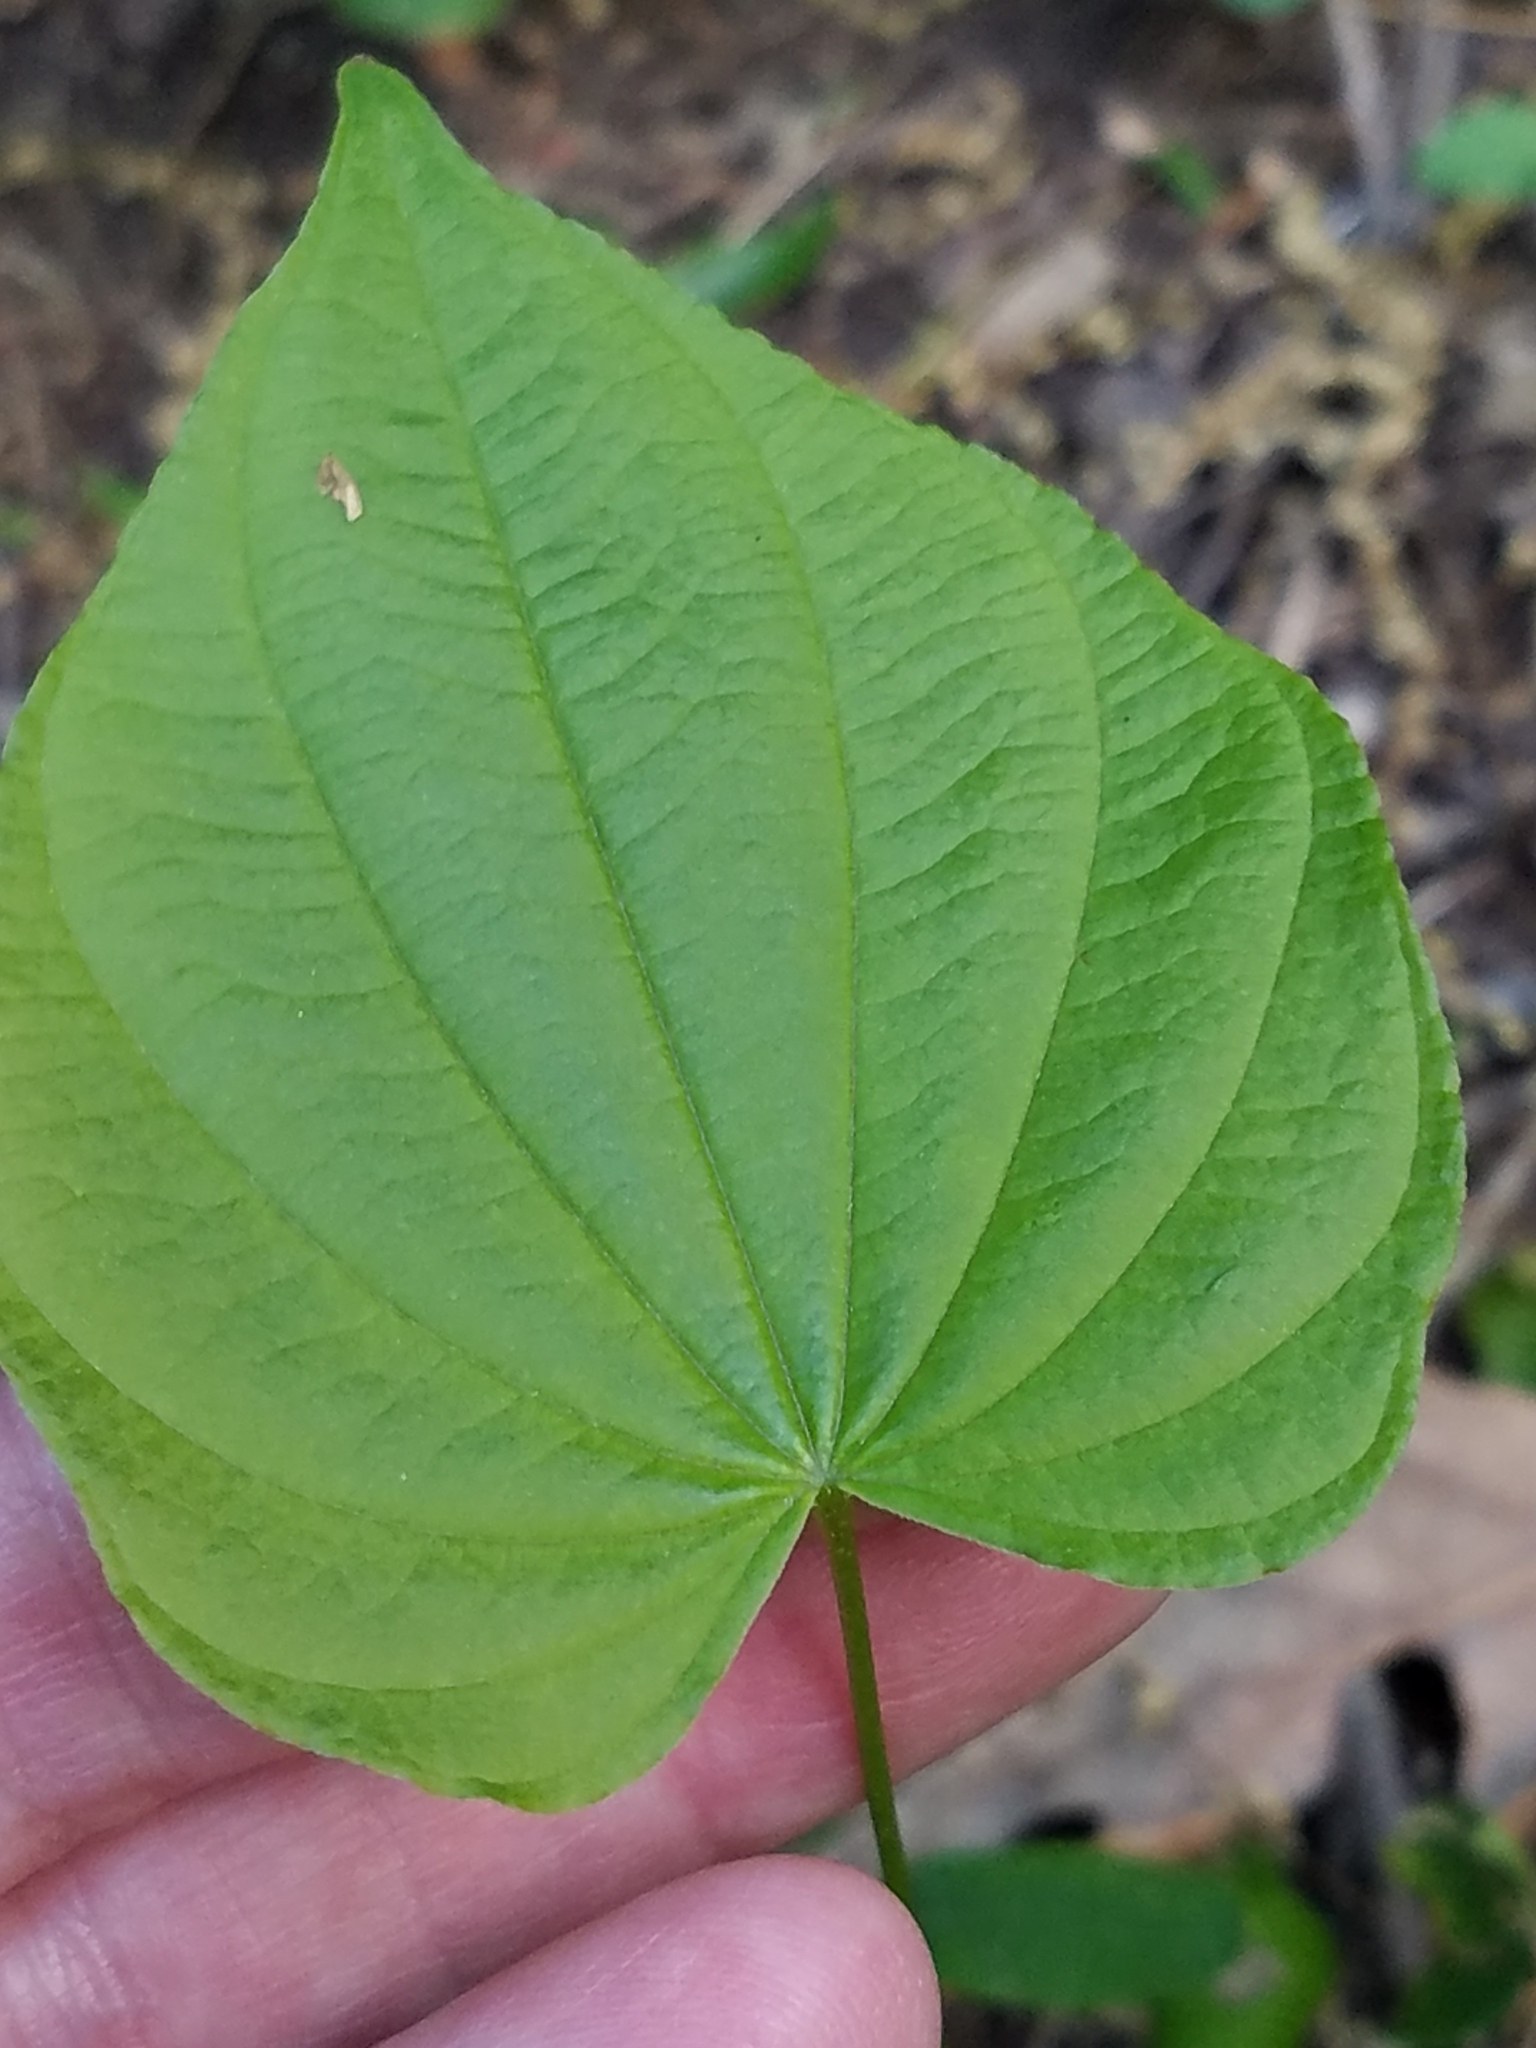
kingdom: Plantae
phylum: Tracheophyta
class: Liliopsida
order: Dioscoreales
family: Dioscoreaceae
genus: Dioscorea
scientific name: Dioscorea villosa
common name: Wild yam
